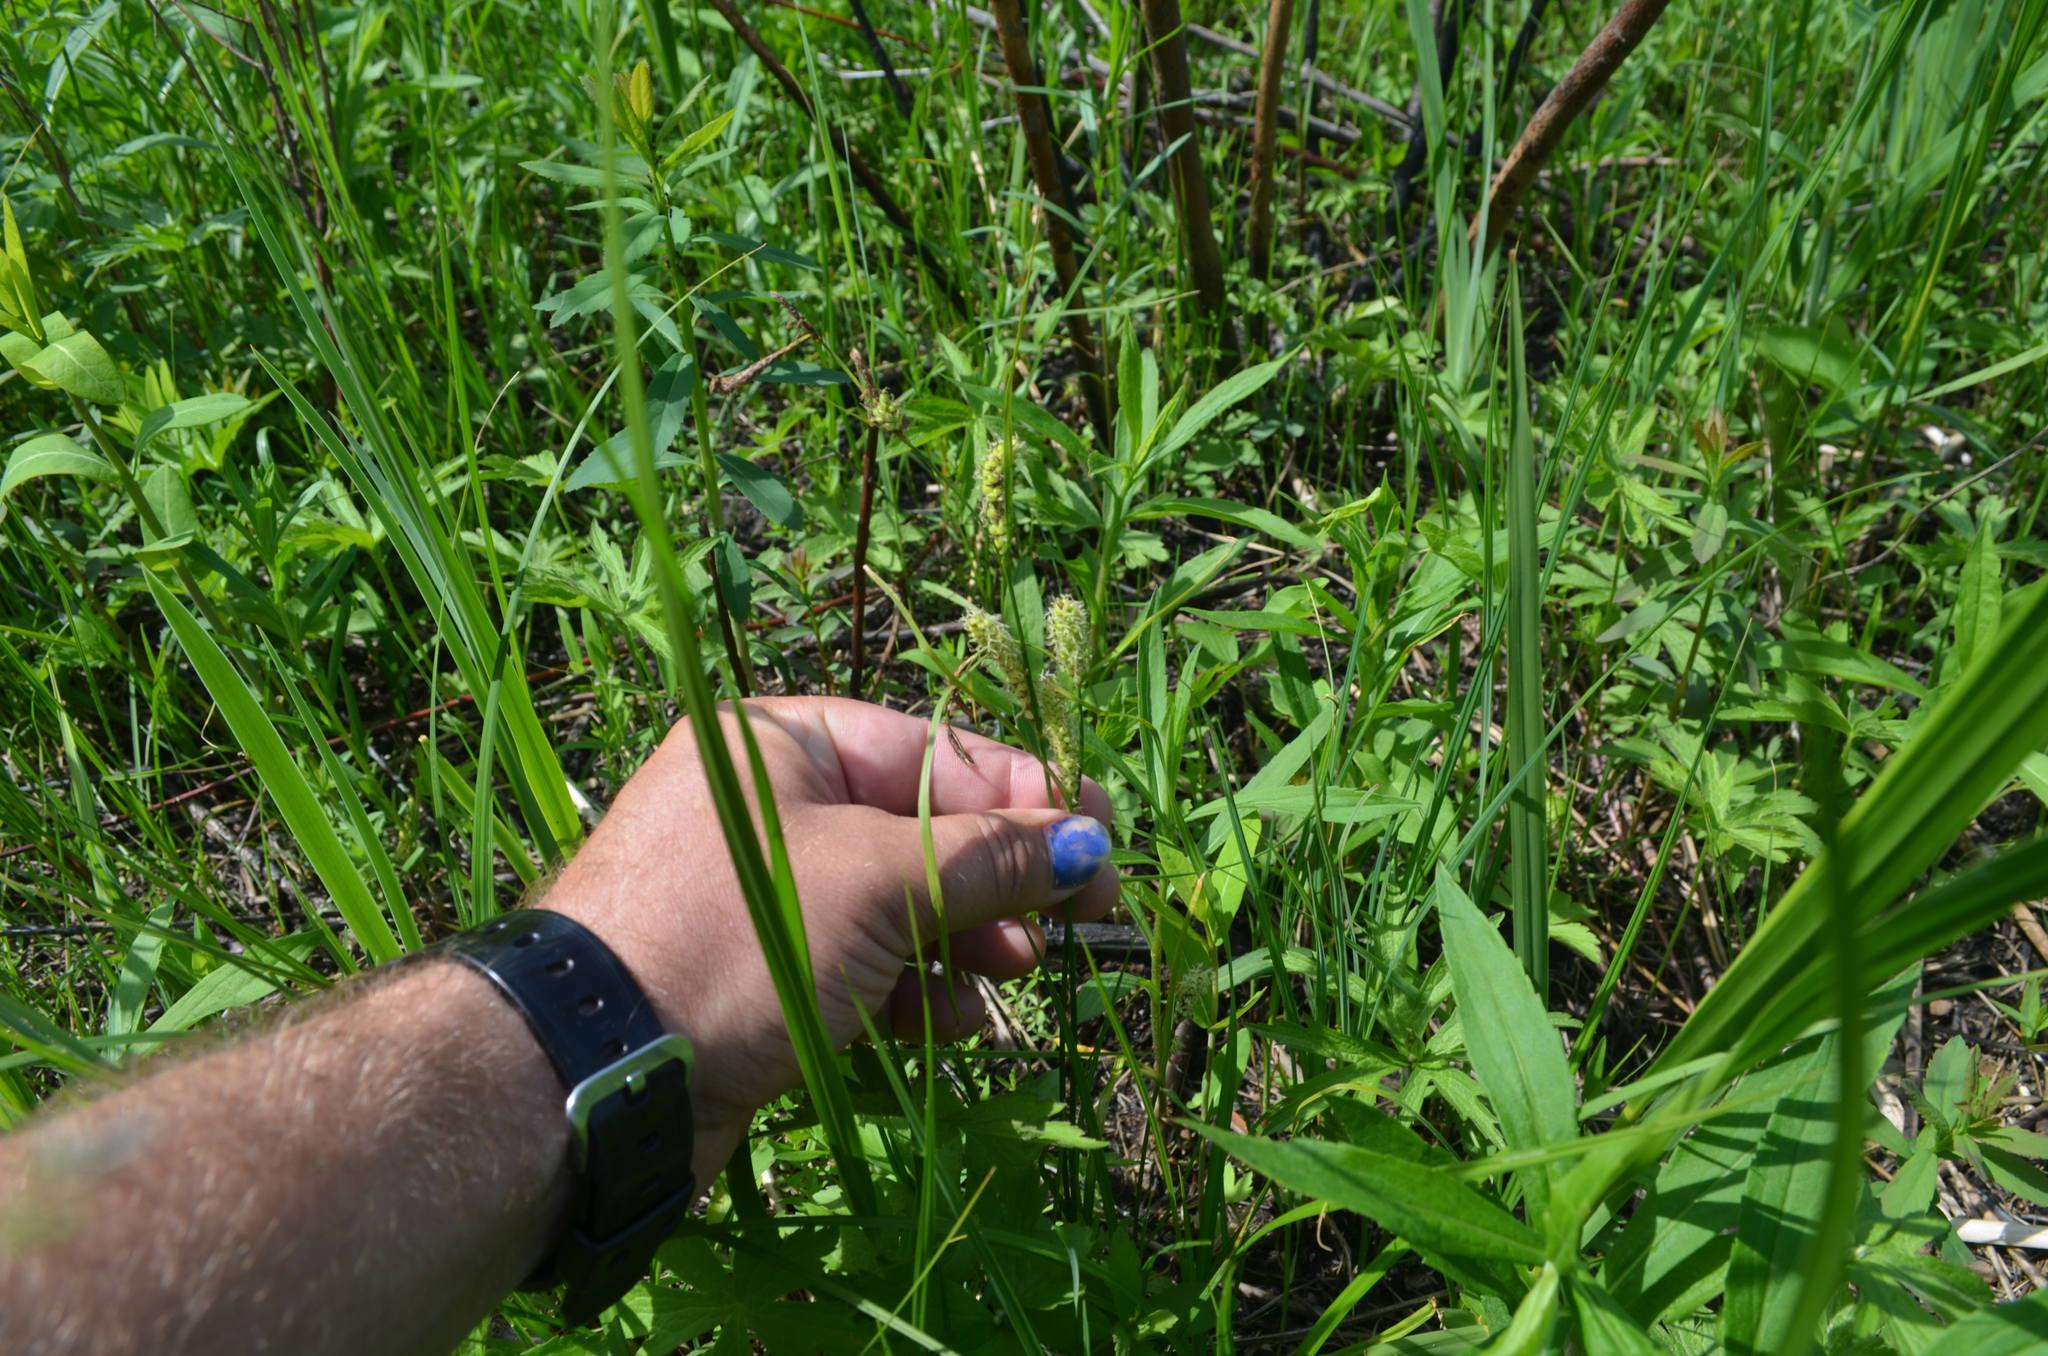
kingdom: Plantae
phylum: Tracheophyta
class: Liliopsida
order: Poales
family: Cyperaceae
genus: Carex
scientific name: Carex pellita
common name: Woolly sedge
